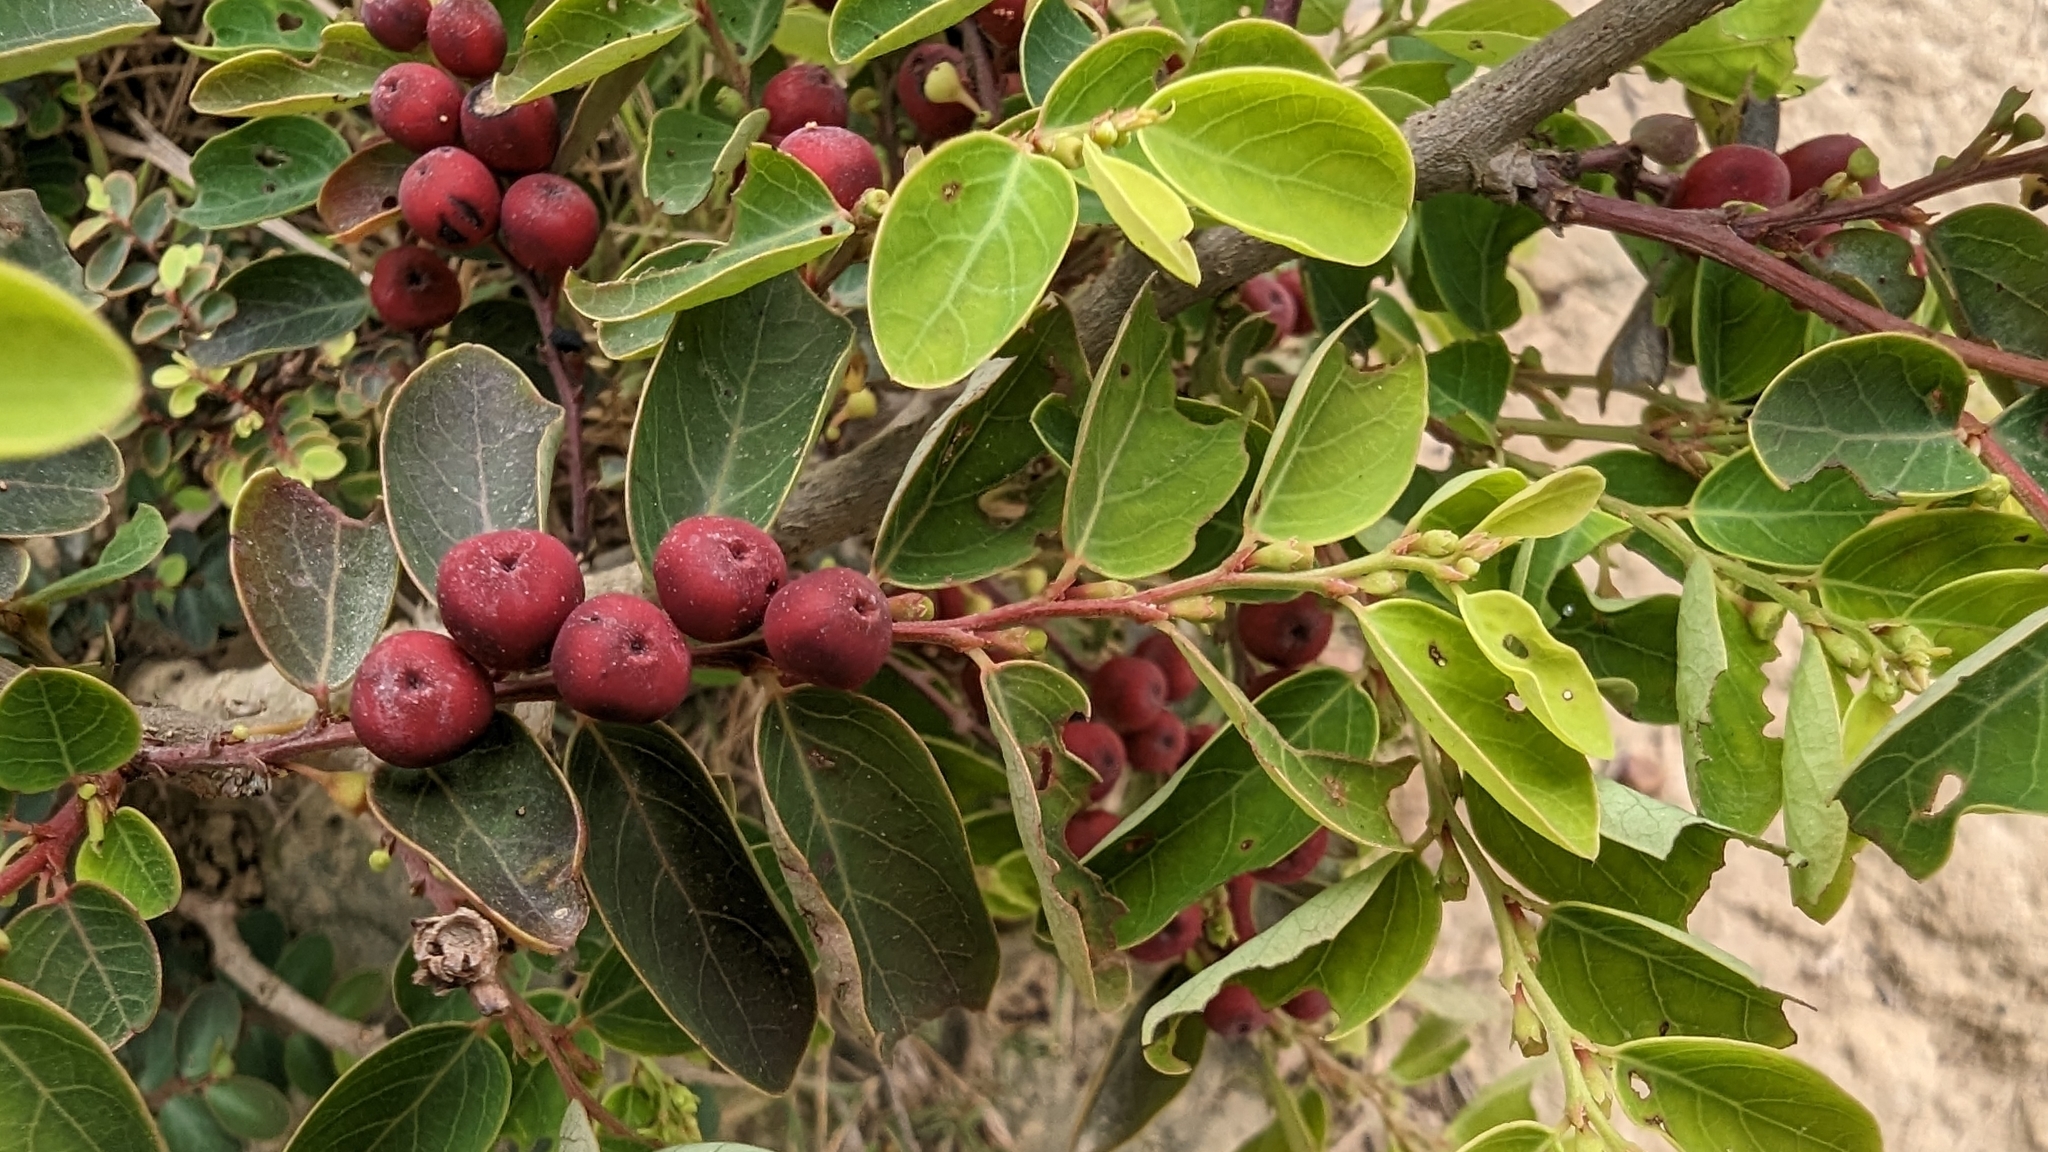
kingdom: Plantae
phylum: Tracheophyta
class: Magnoliopsida
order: Malpighiales
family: Phyllanthaceae
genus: Breynia
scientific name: Breynia vitis-idaea
